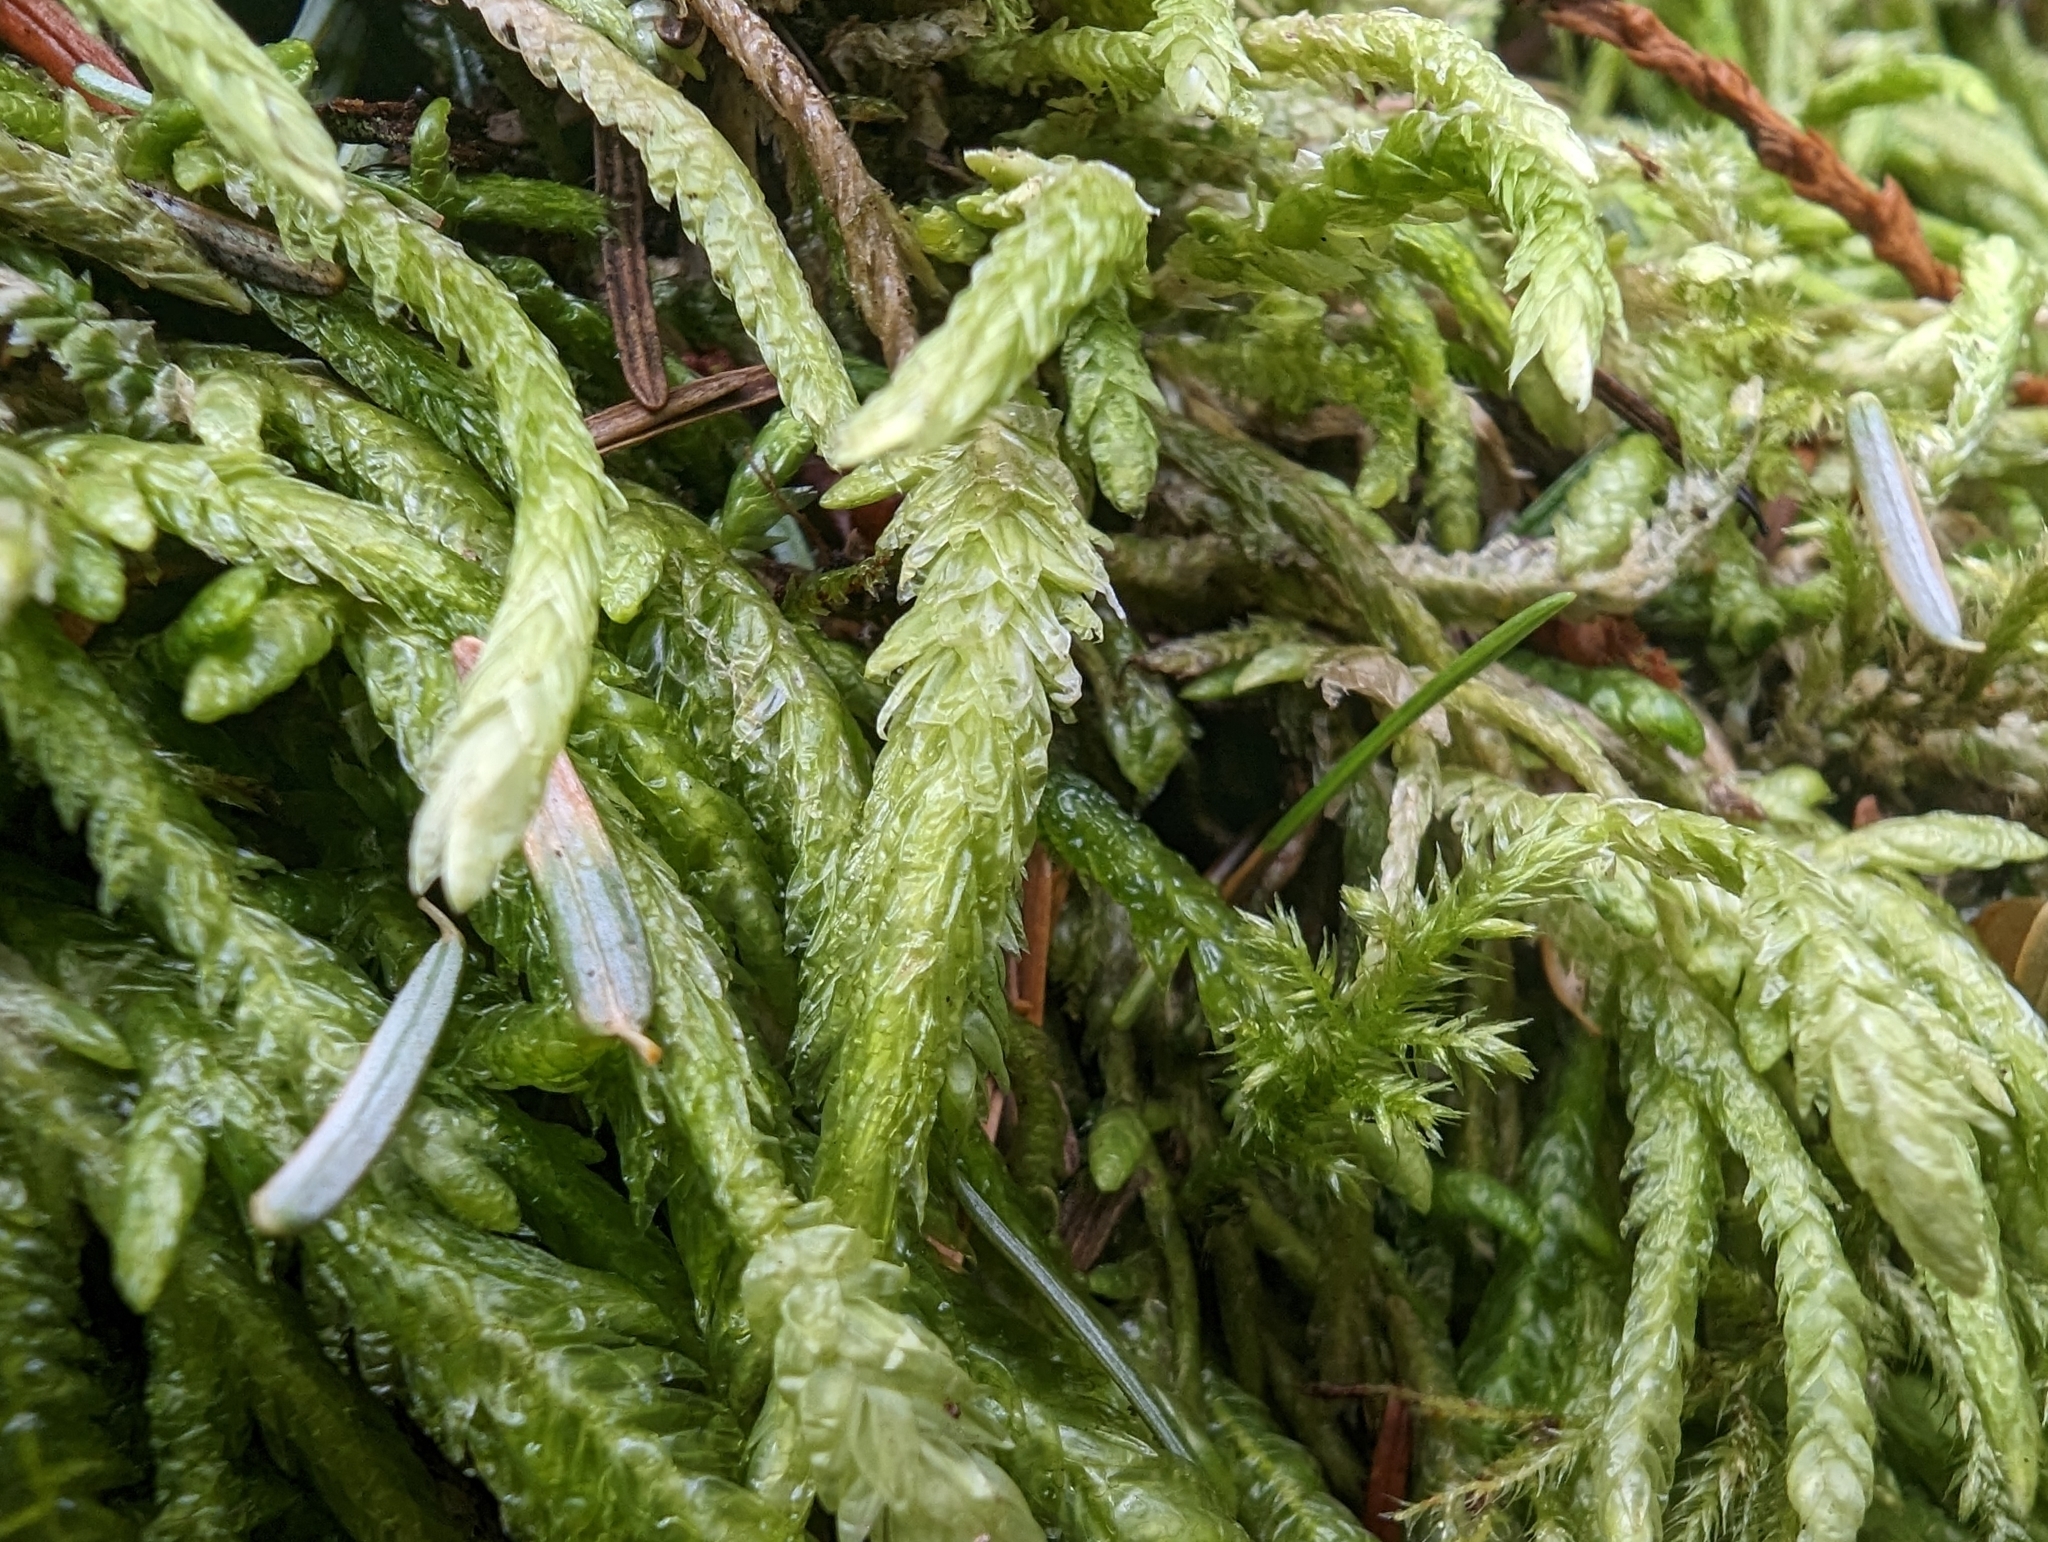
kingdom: Plantae
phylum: Bryophyta
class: Bryopsida
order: Hypnales
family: Plagiotheciaceae
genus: Plagiothecium
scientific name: Plagiothecium undulatum
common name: Waved silk-moss
